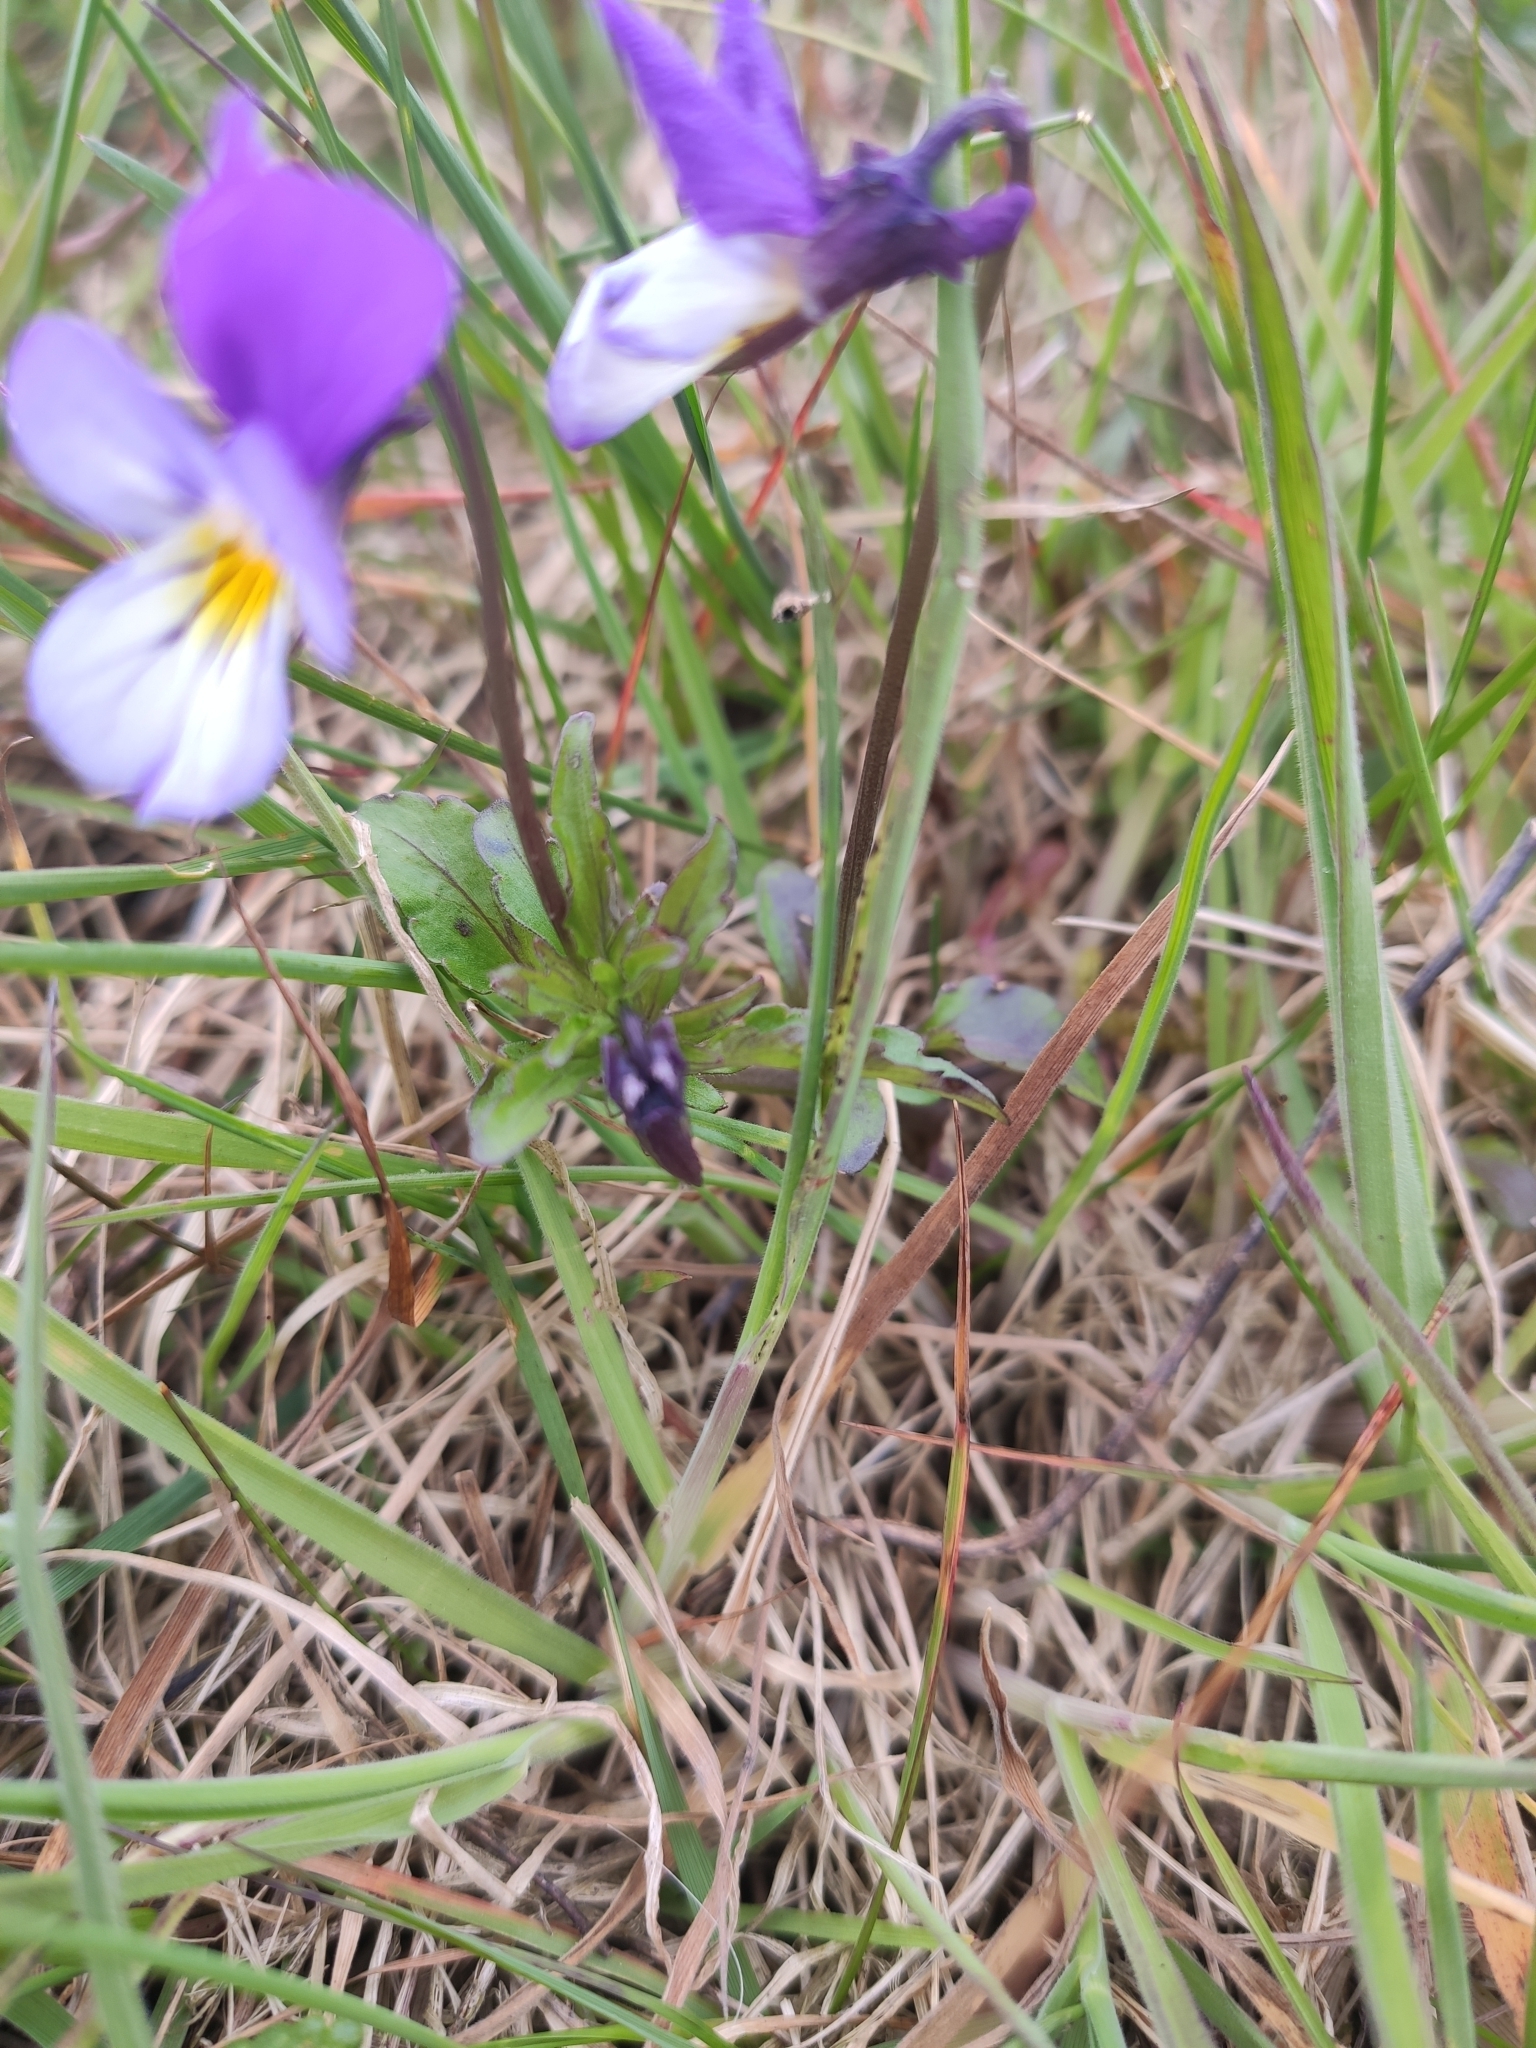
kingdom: Plantae
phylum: Tracheophyta
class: Magnoliopsida
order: Malpighiales
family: Violaceae
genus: Viola
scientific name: Viola tricolor
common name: Pansy
